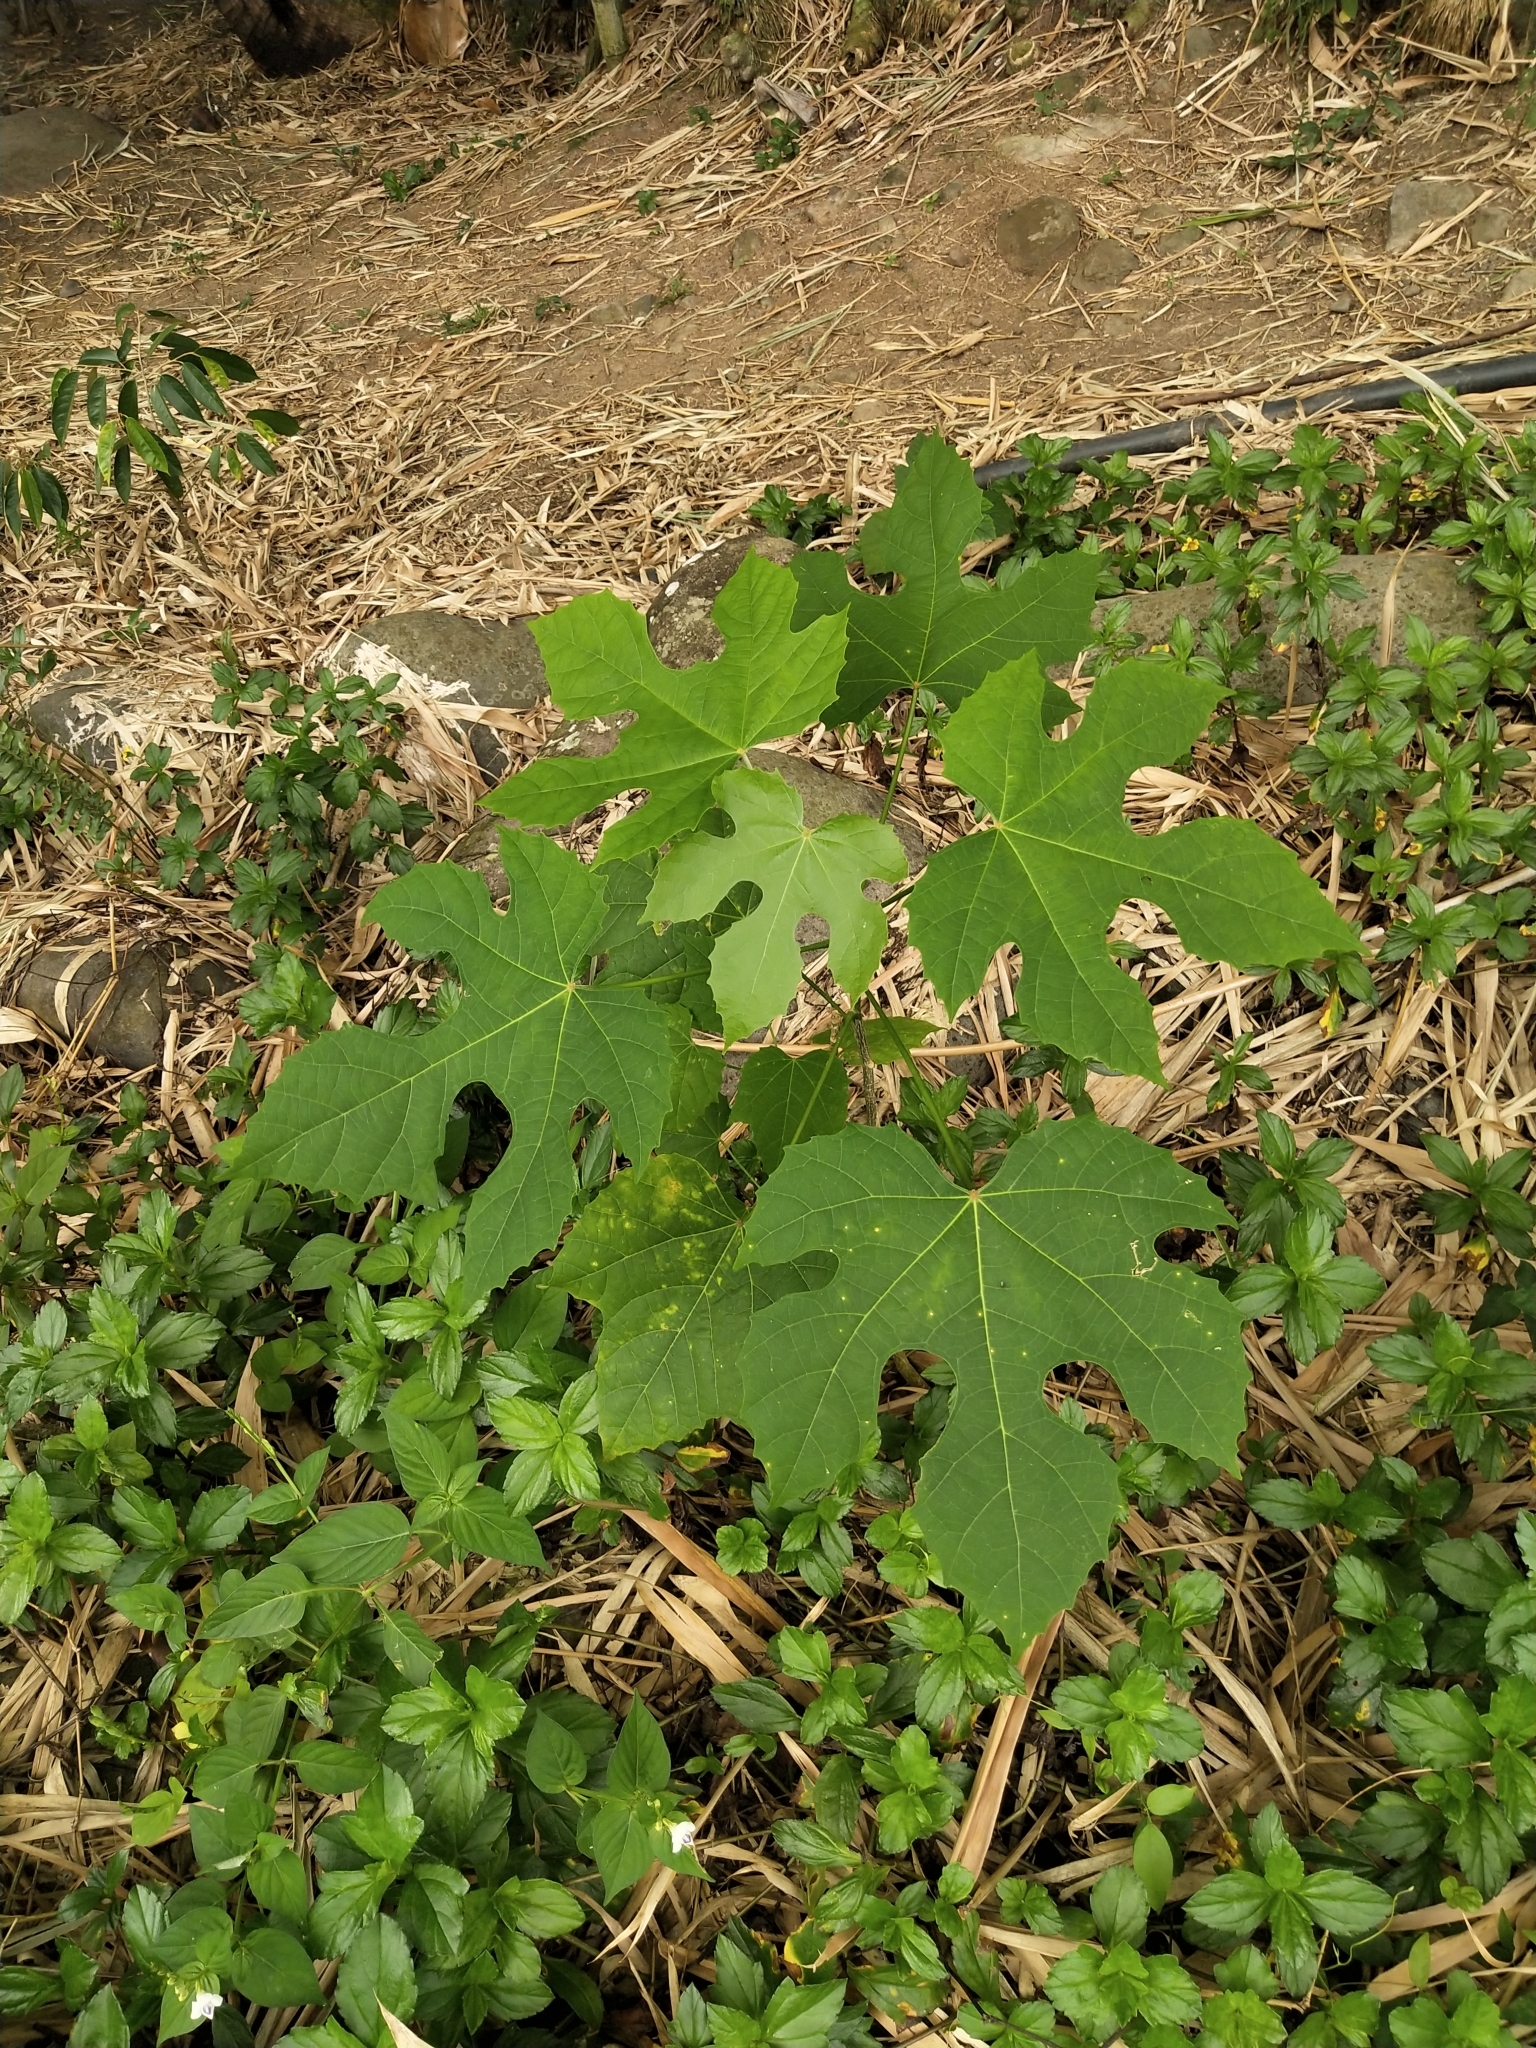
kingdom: Plantae
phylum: Tracheophyta
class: Magnoliopsida
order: Malpighiales
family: Euphorbiaceae
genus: Melanolepis
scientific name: Melanolepis multiglandulosa
